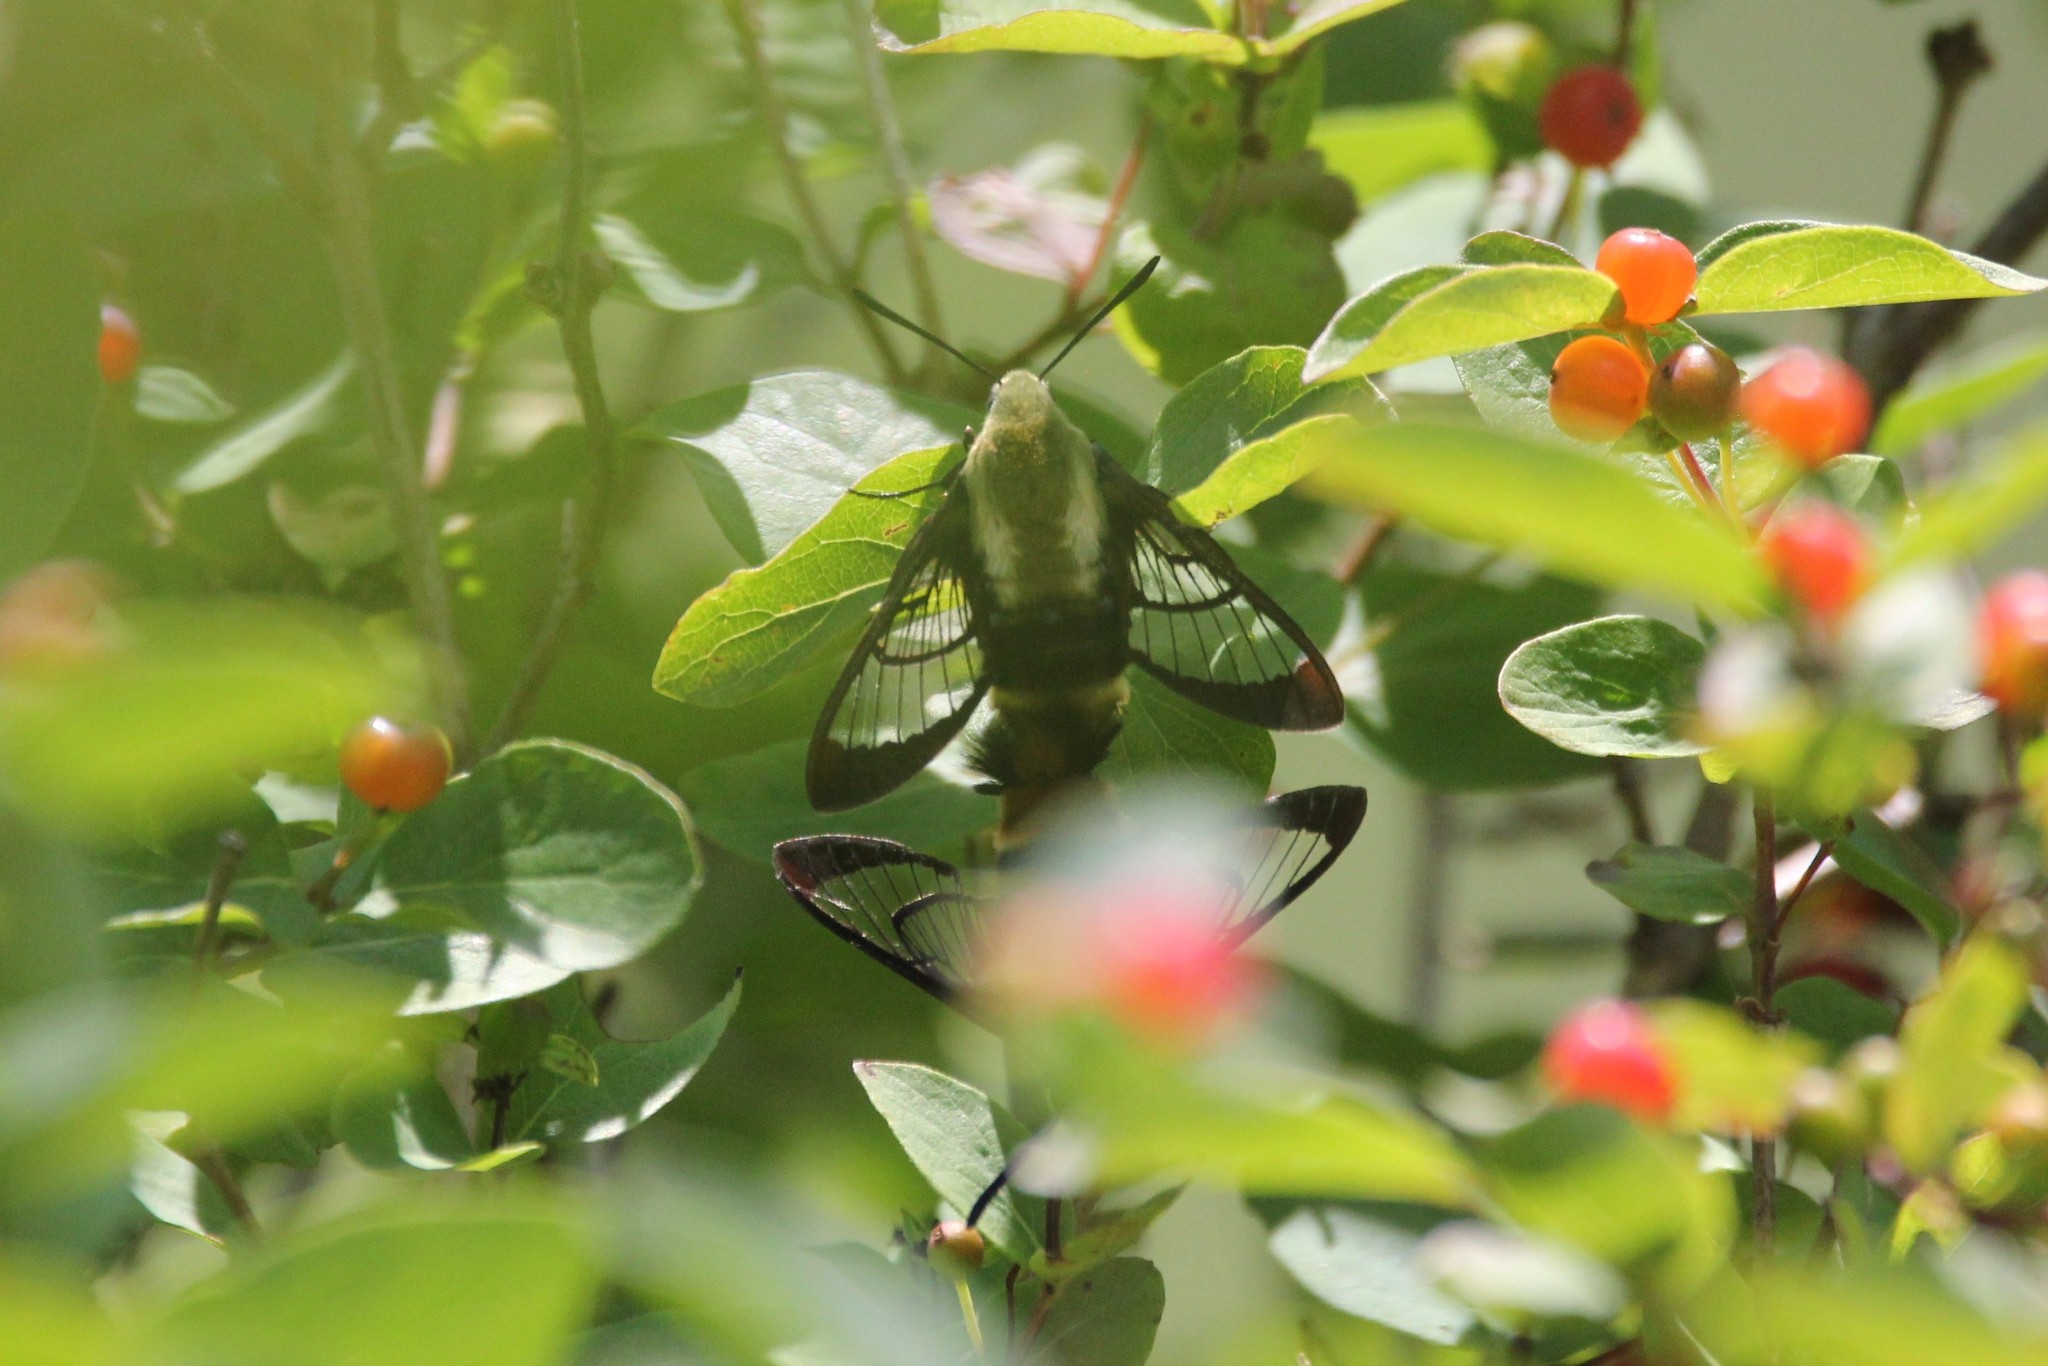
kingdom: Animalia
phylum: Arthropoda
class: Insecta
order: Lepidoptera
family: Sphingidae
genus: Hemaris
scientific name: Hemaris diffinis
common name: Bumblebee moth
